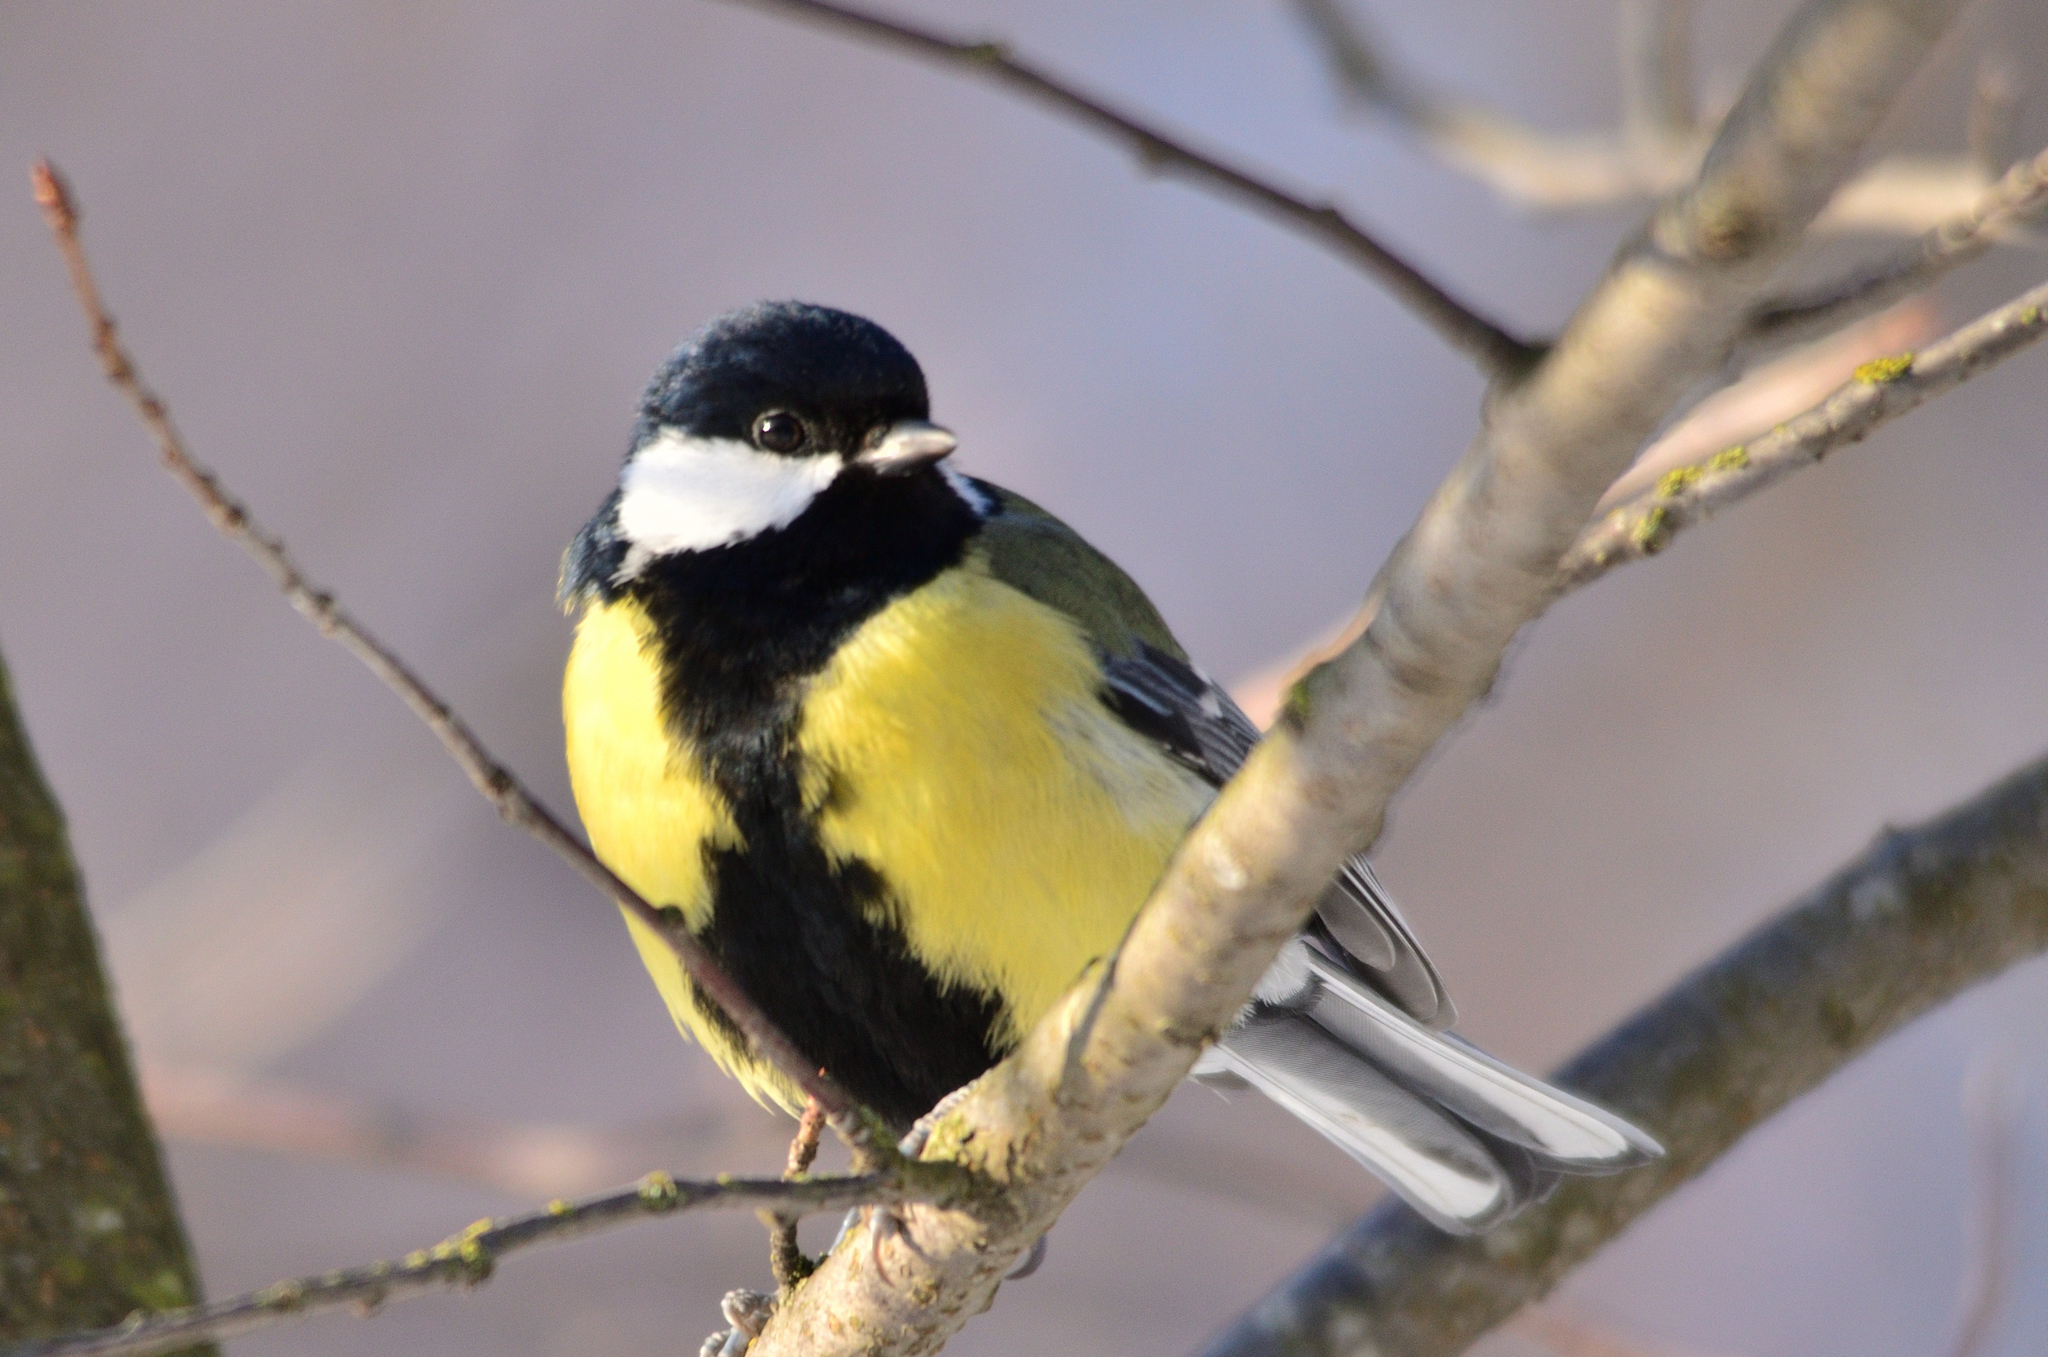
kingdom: Animalia
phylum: Chordata
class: Aves
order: Passeriformes
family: Paridae
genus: Parus
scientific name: Parus major
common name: Great tit
